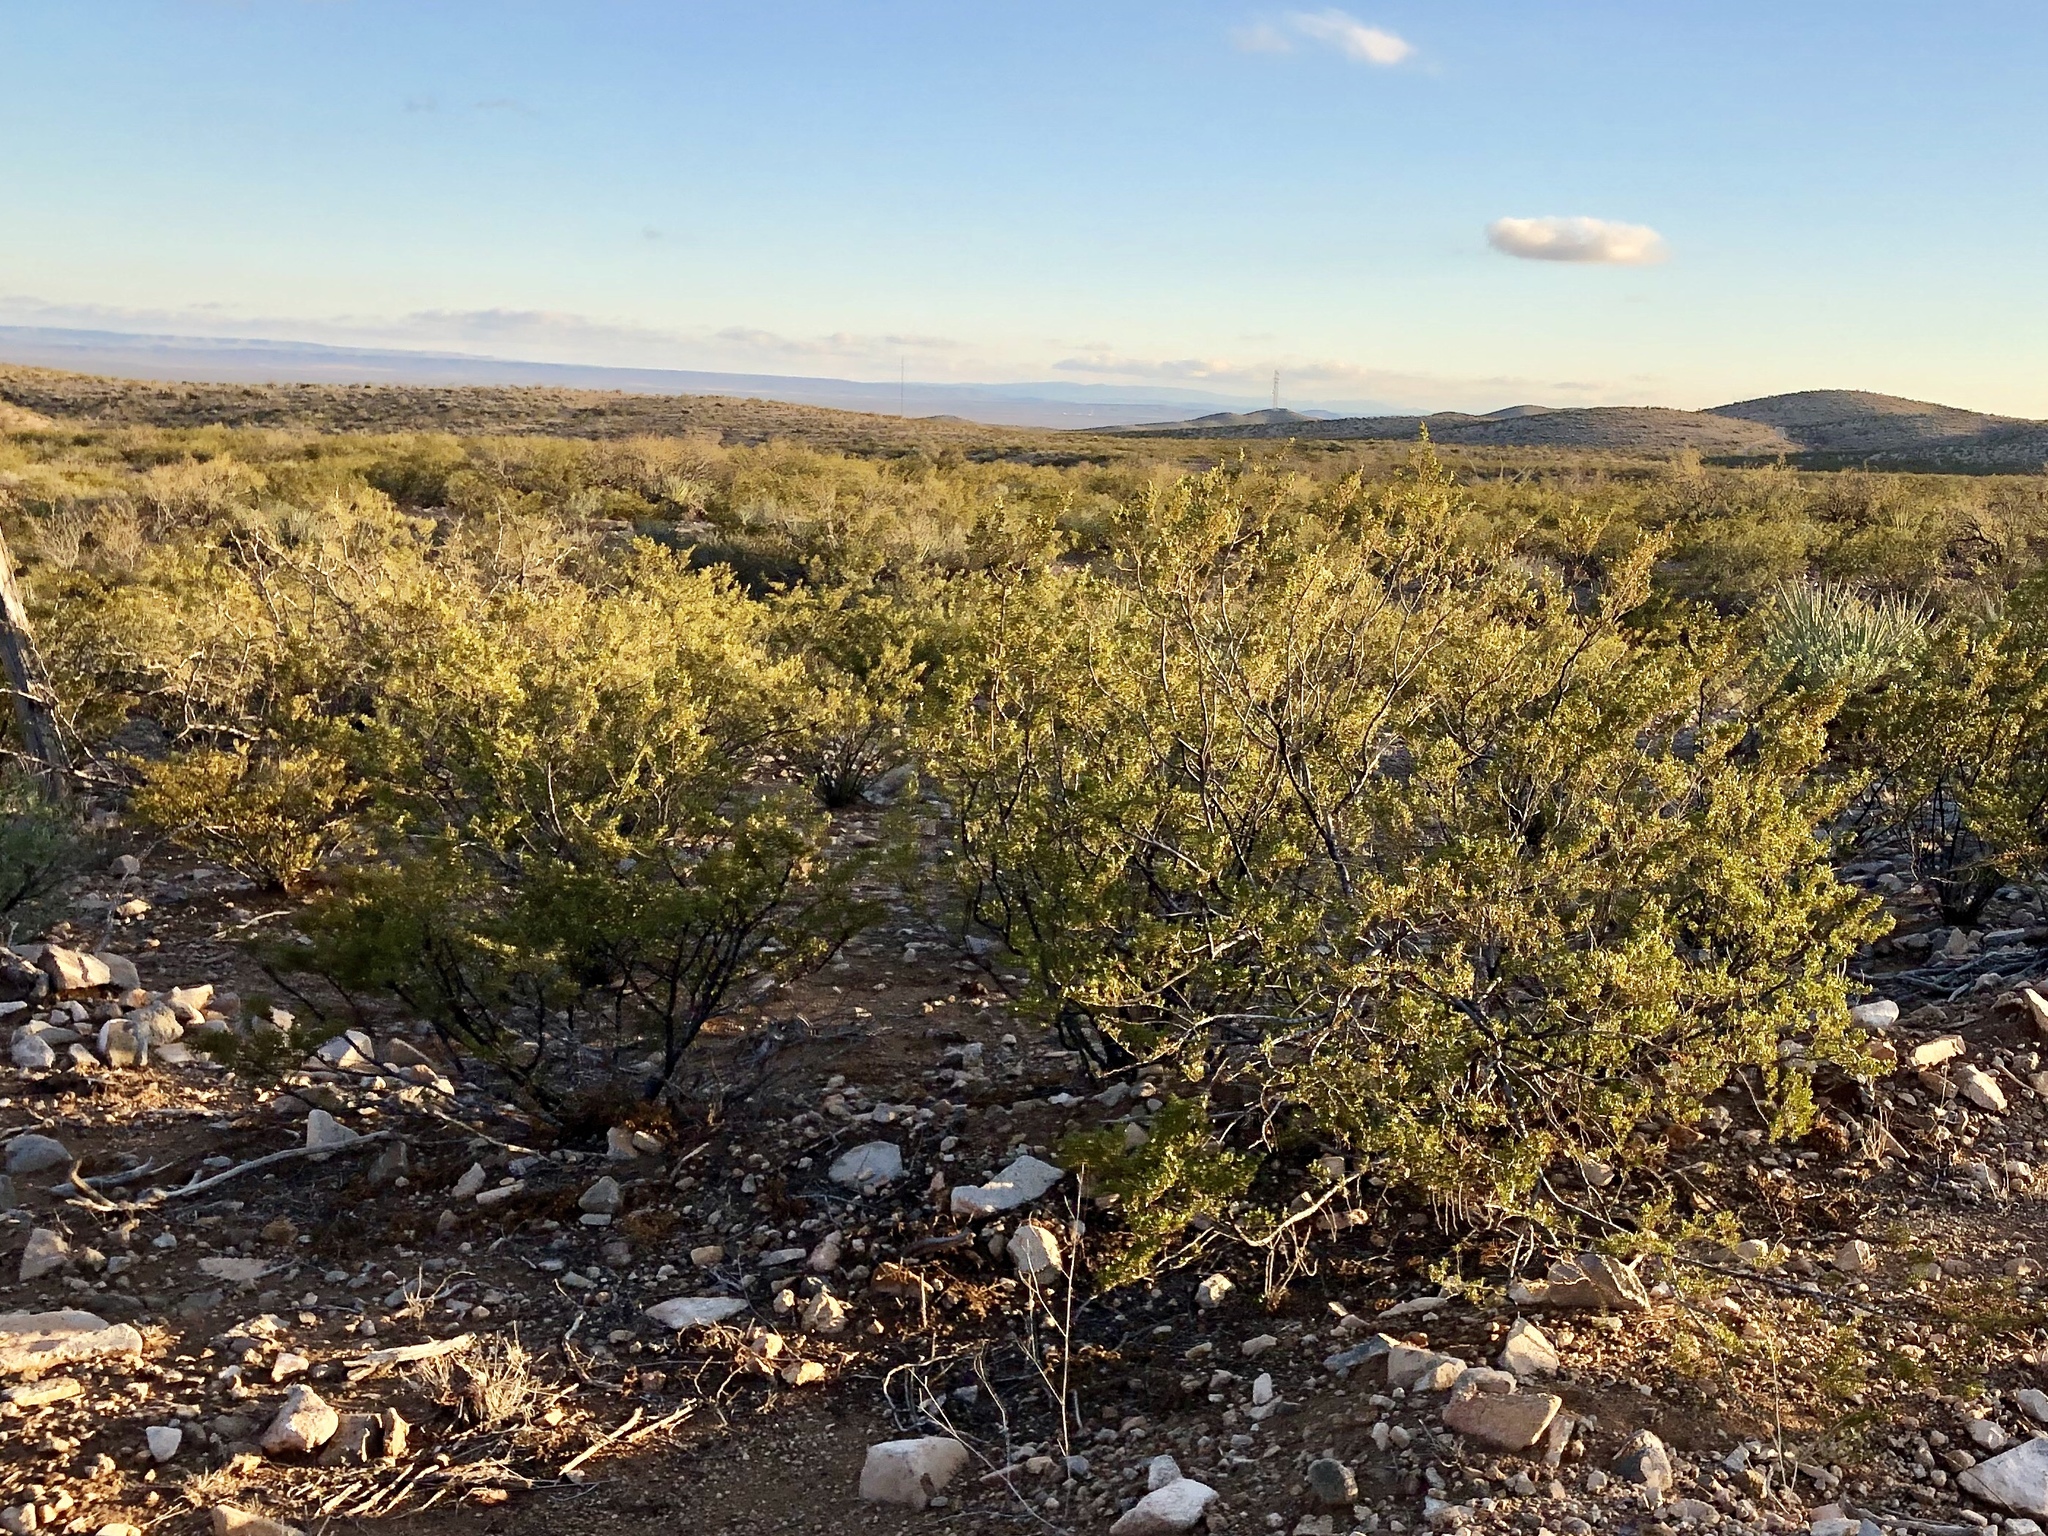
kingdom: Plantae
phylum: Tracheophyta
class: Magnoliopsida
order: Zygophyllales
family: Zygophyllaceae
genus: Larrea
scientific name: Larrea tridentata
